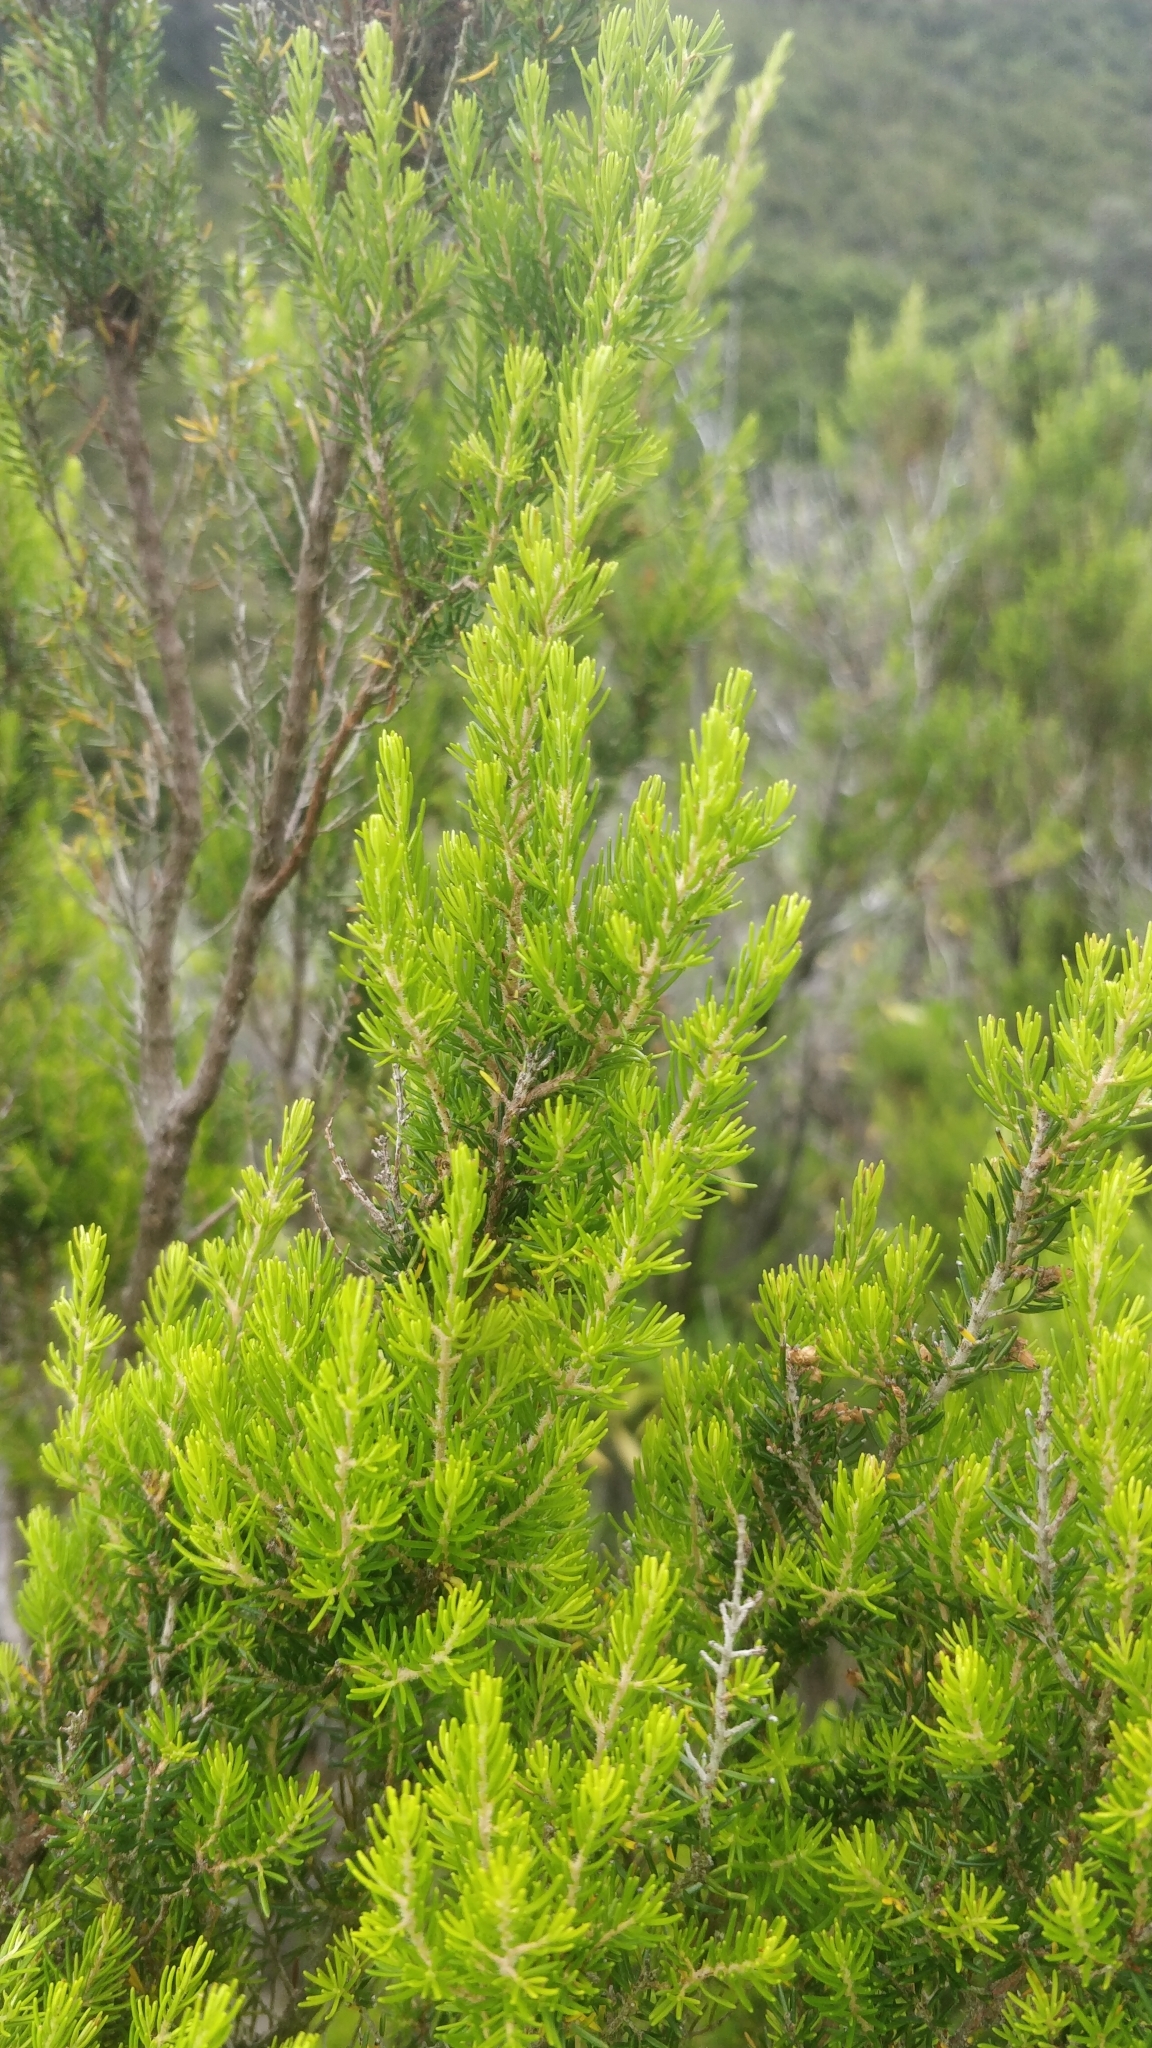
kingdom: Plantae
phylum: Tracheophyta
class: Magnoliopsida
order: Ericales
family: Ericaceae
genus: Erica
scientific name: Erica canariensis
